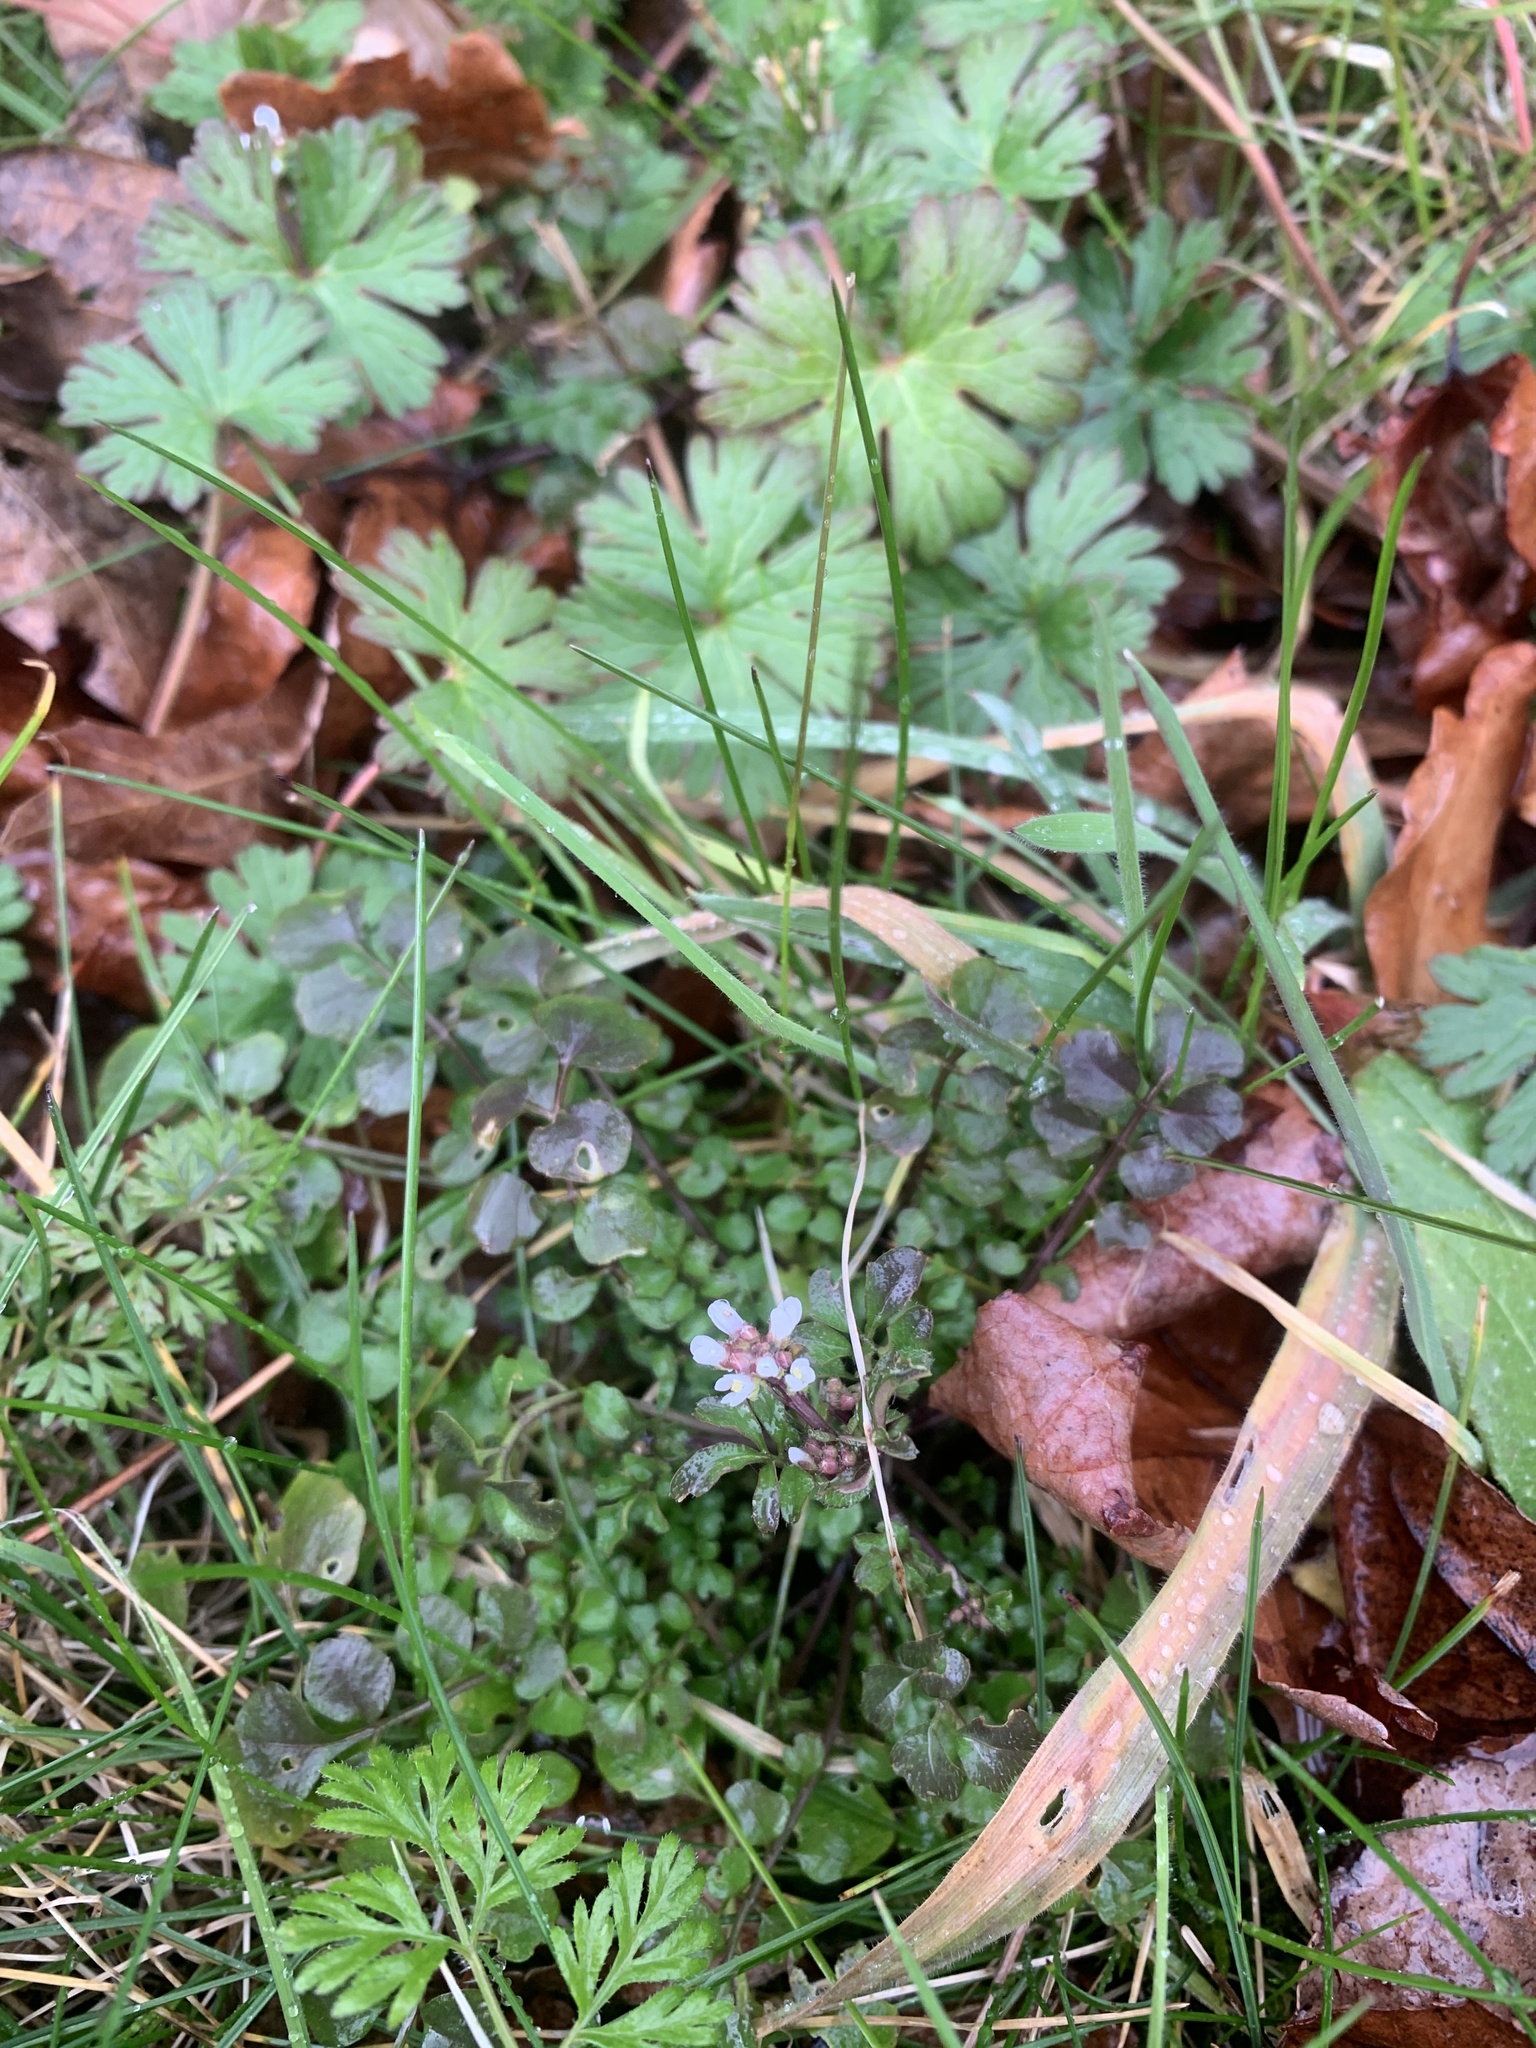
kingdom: Plantae
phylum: Tracheophyta
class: Magnoliopsida
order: Brassicales
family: Brassicaceae
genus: Cardamine
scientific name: Cardamine hirsuta
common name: Hairy bittercress
